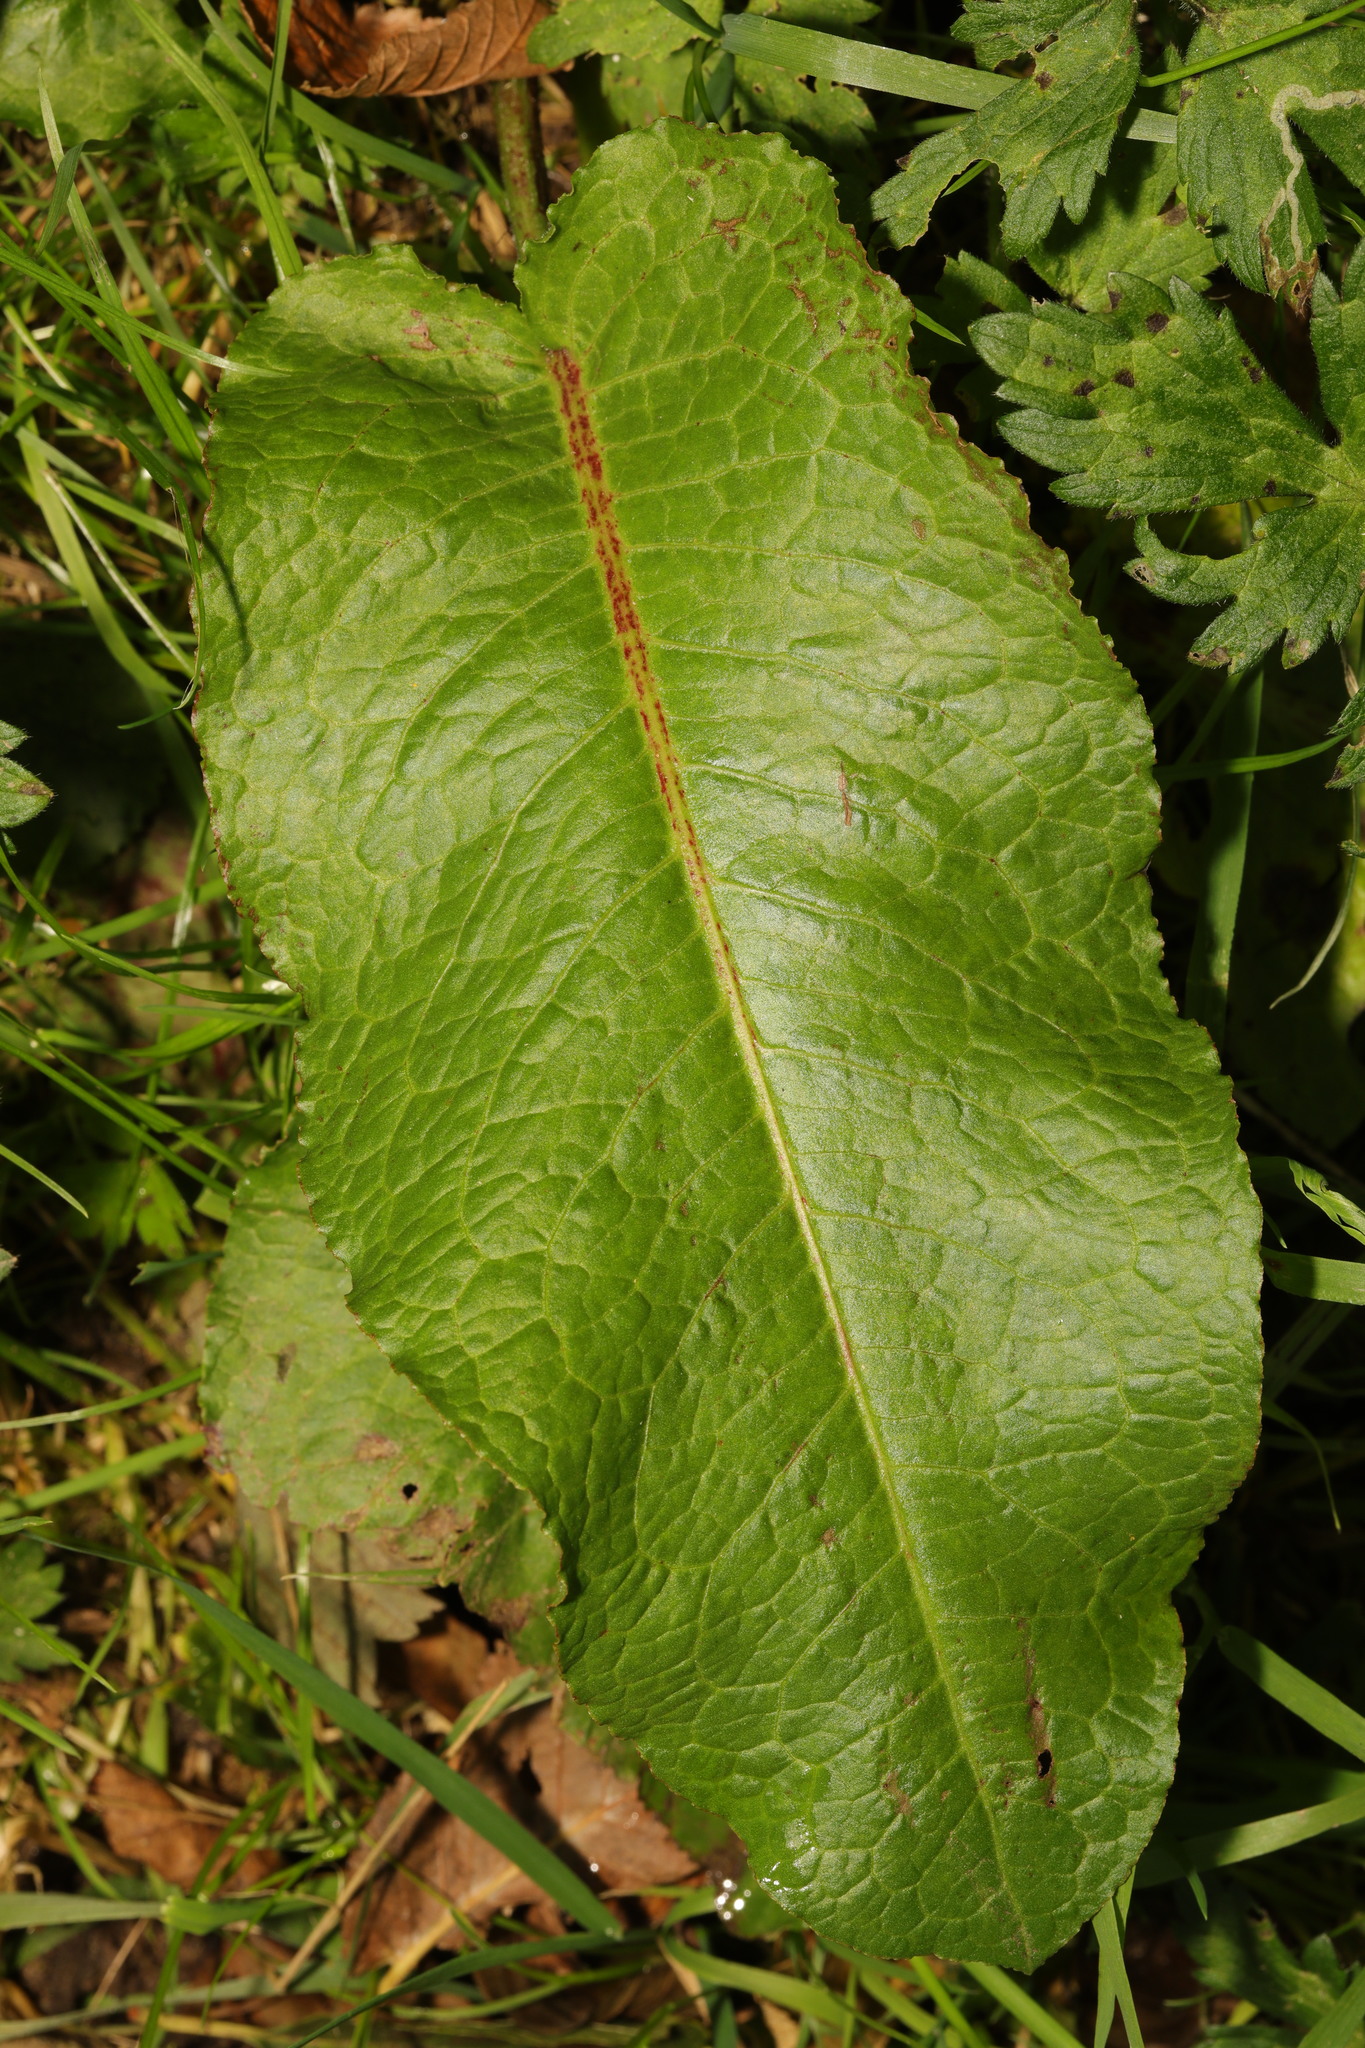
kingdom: Plantae
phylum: Tracheophyta
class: Magnoliopsida
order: Caryophyllales
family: Polygonaceae
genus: Rumex
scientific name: Rumex obtusifolius
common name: Bitter dock
